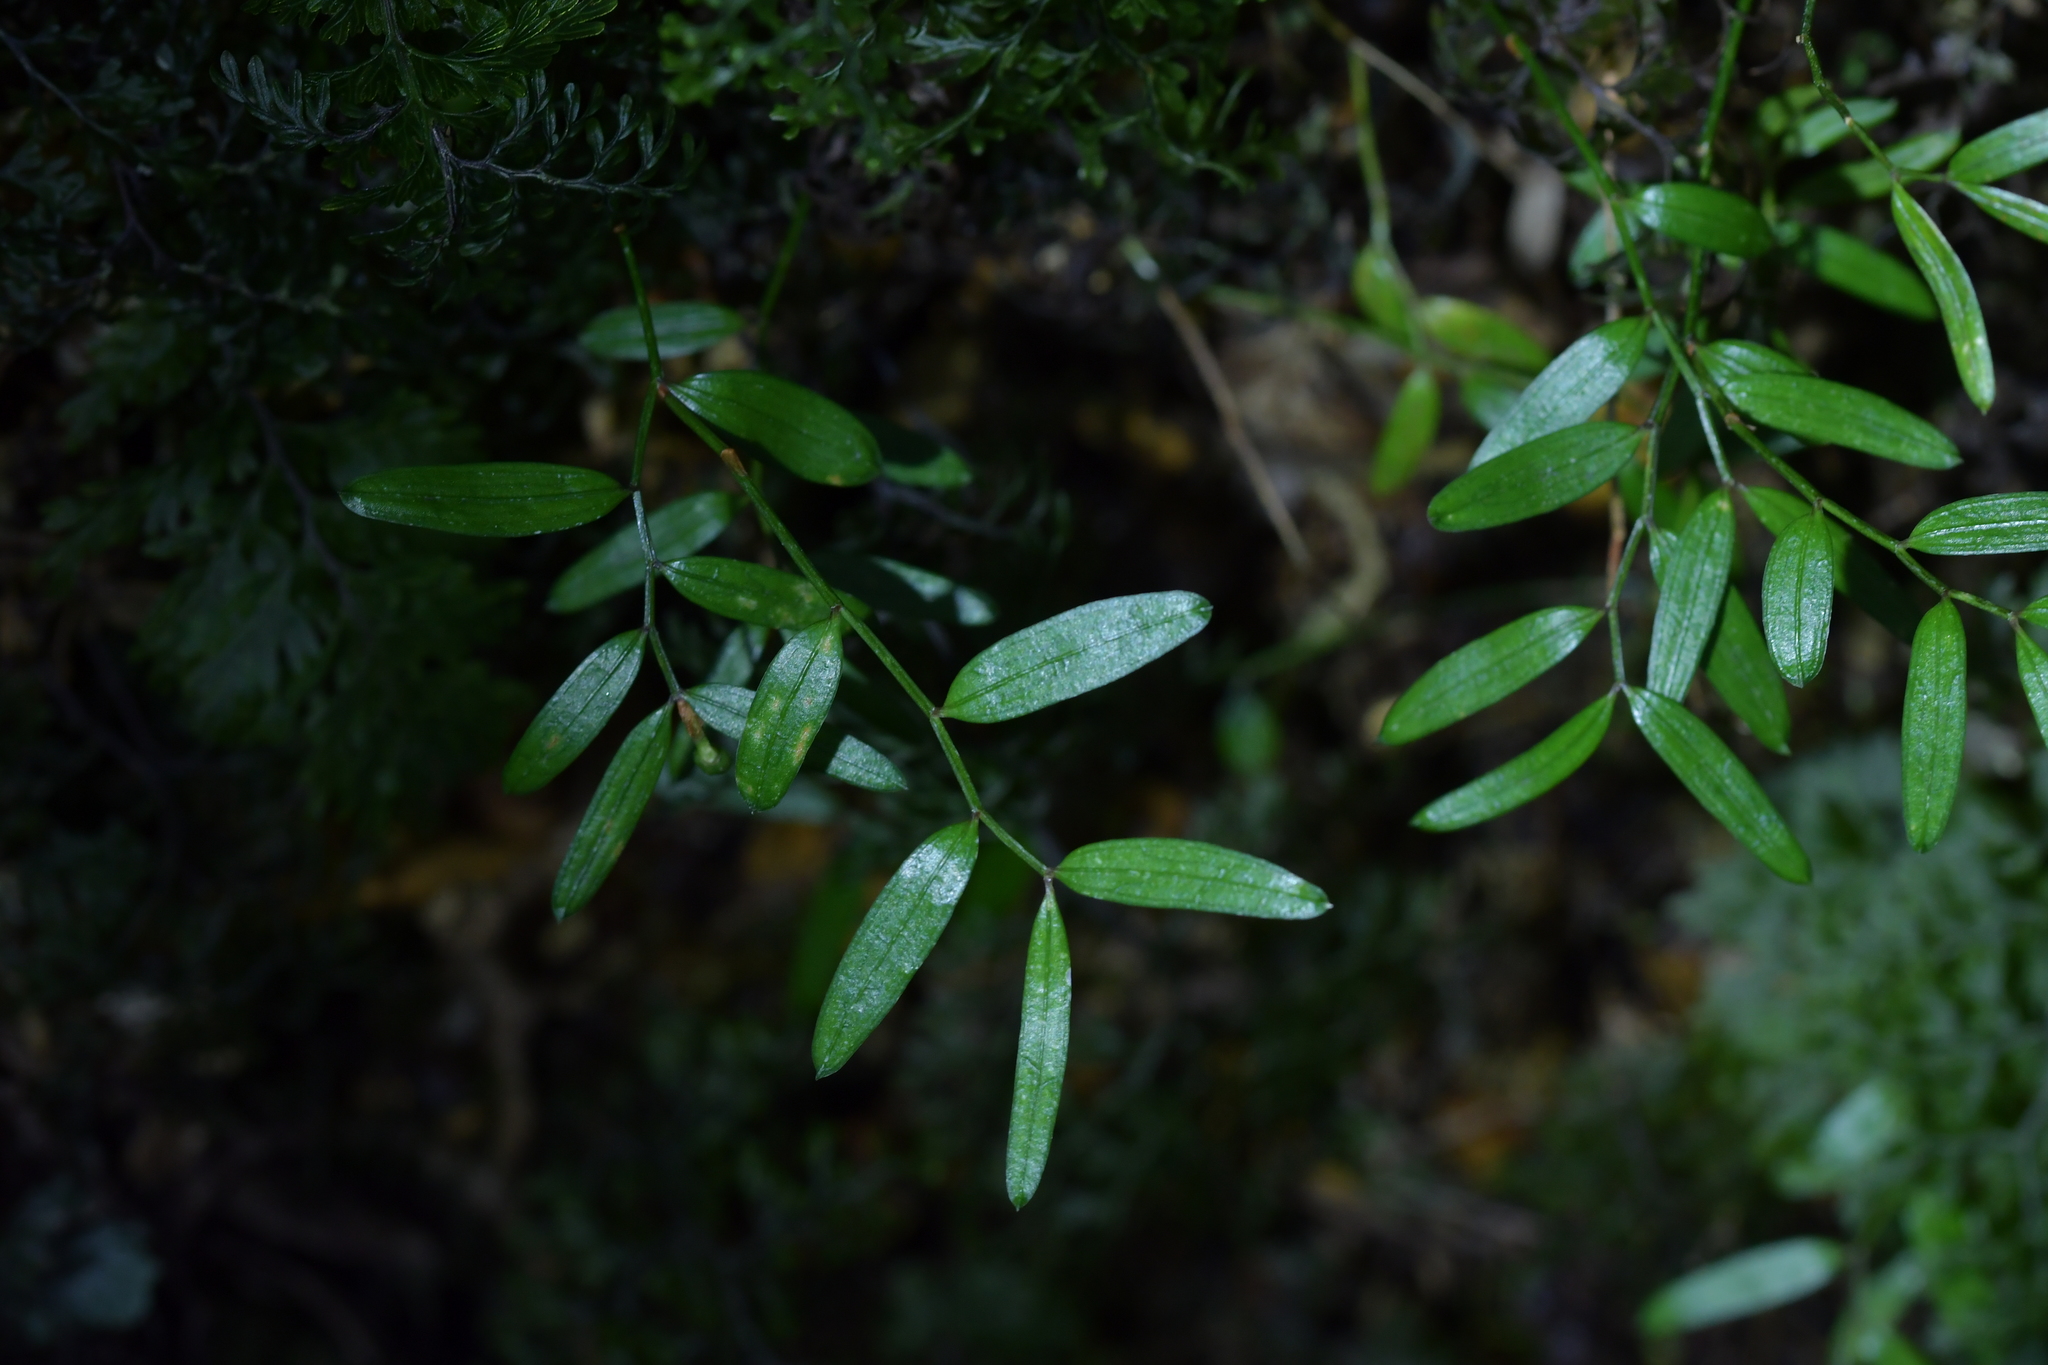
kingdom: Plantae
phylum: Tracheophyta
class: Liliopsida
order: Liliales
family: Alstroemeriaceae
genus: Luzuriaga
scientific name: Luzuriaga parviflora
